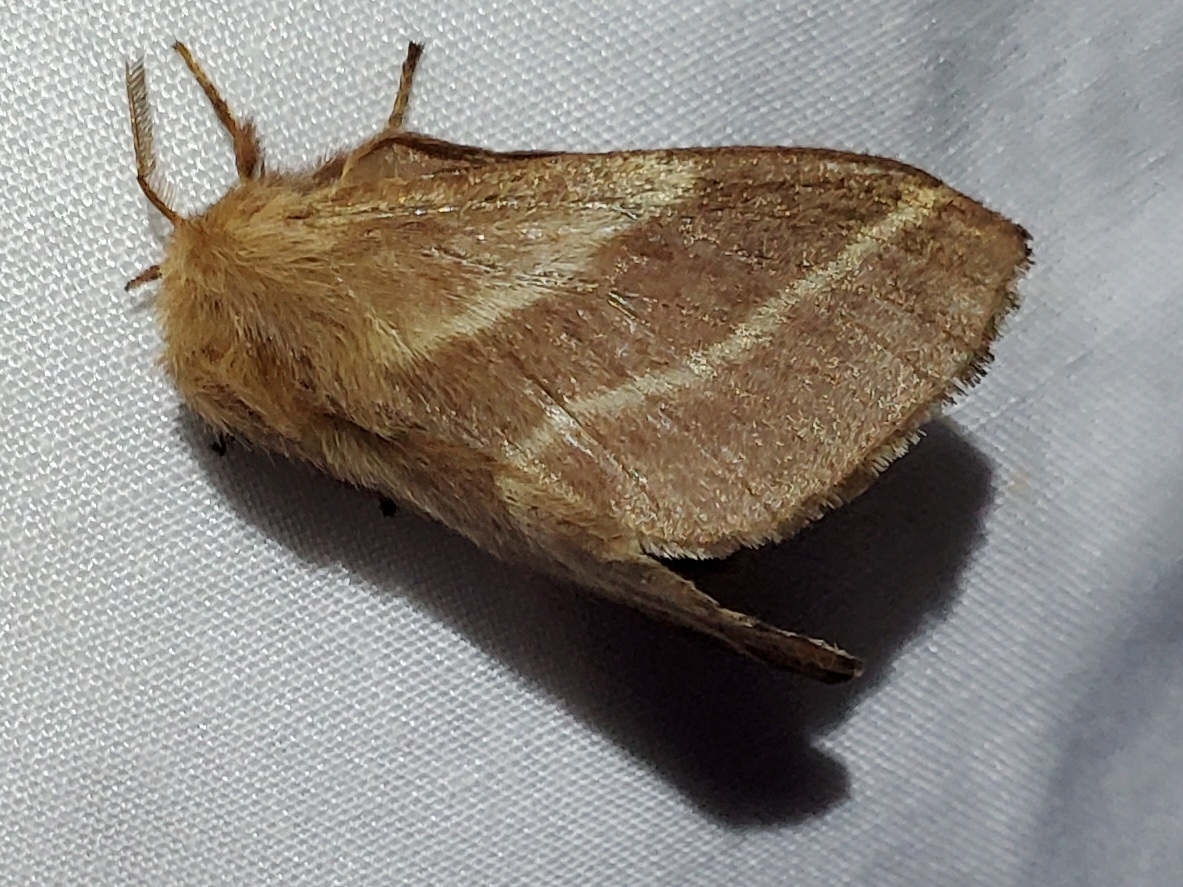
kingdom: Animalia
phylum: Arthropoda
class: Insecta
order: Lepidoptera
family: Lasiocampidae
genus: Malacosoma
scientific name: Malacosoma americana
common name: Eastern tent caterpillar moth
